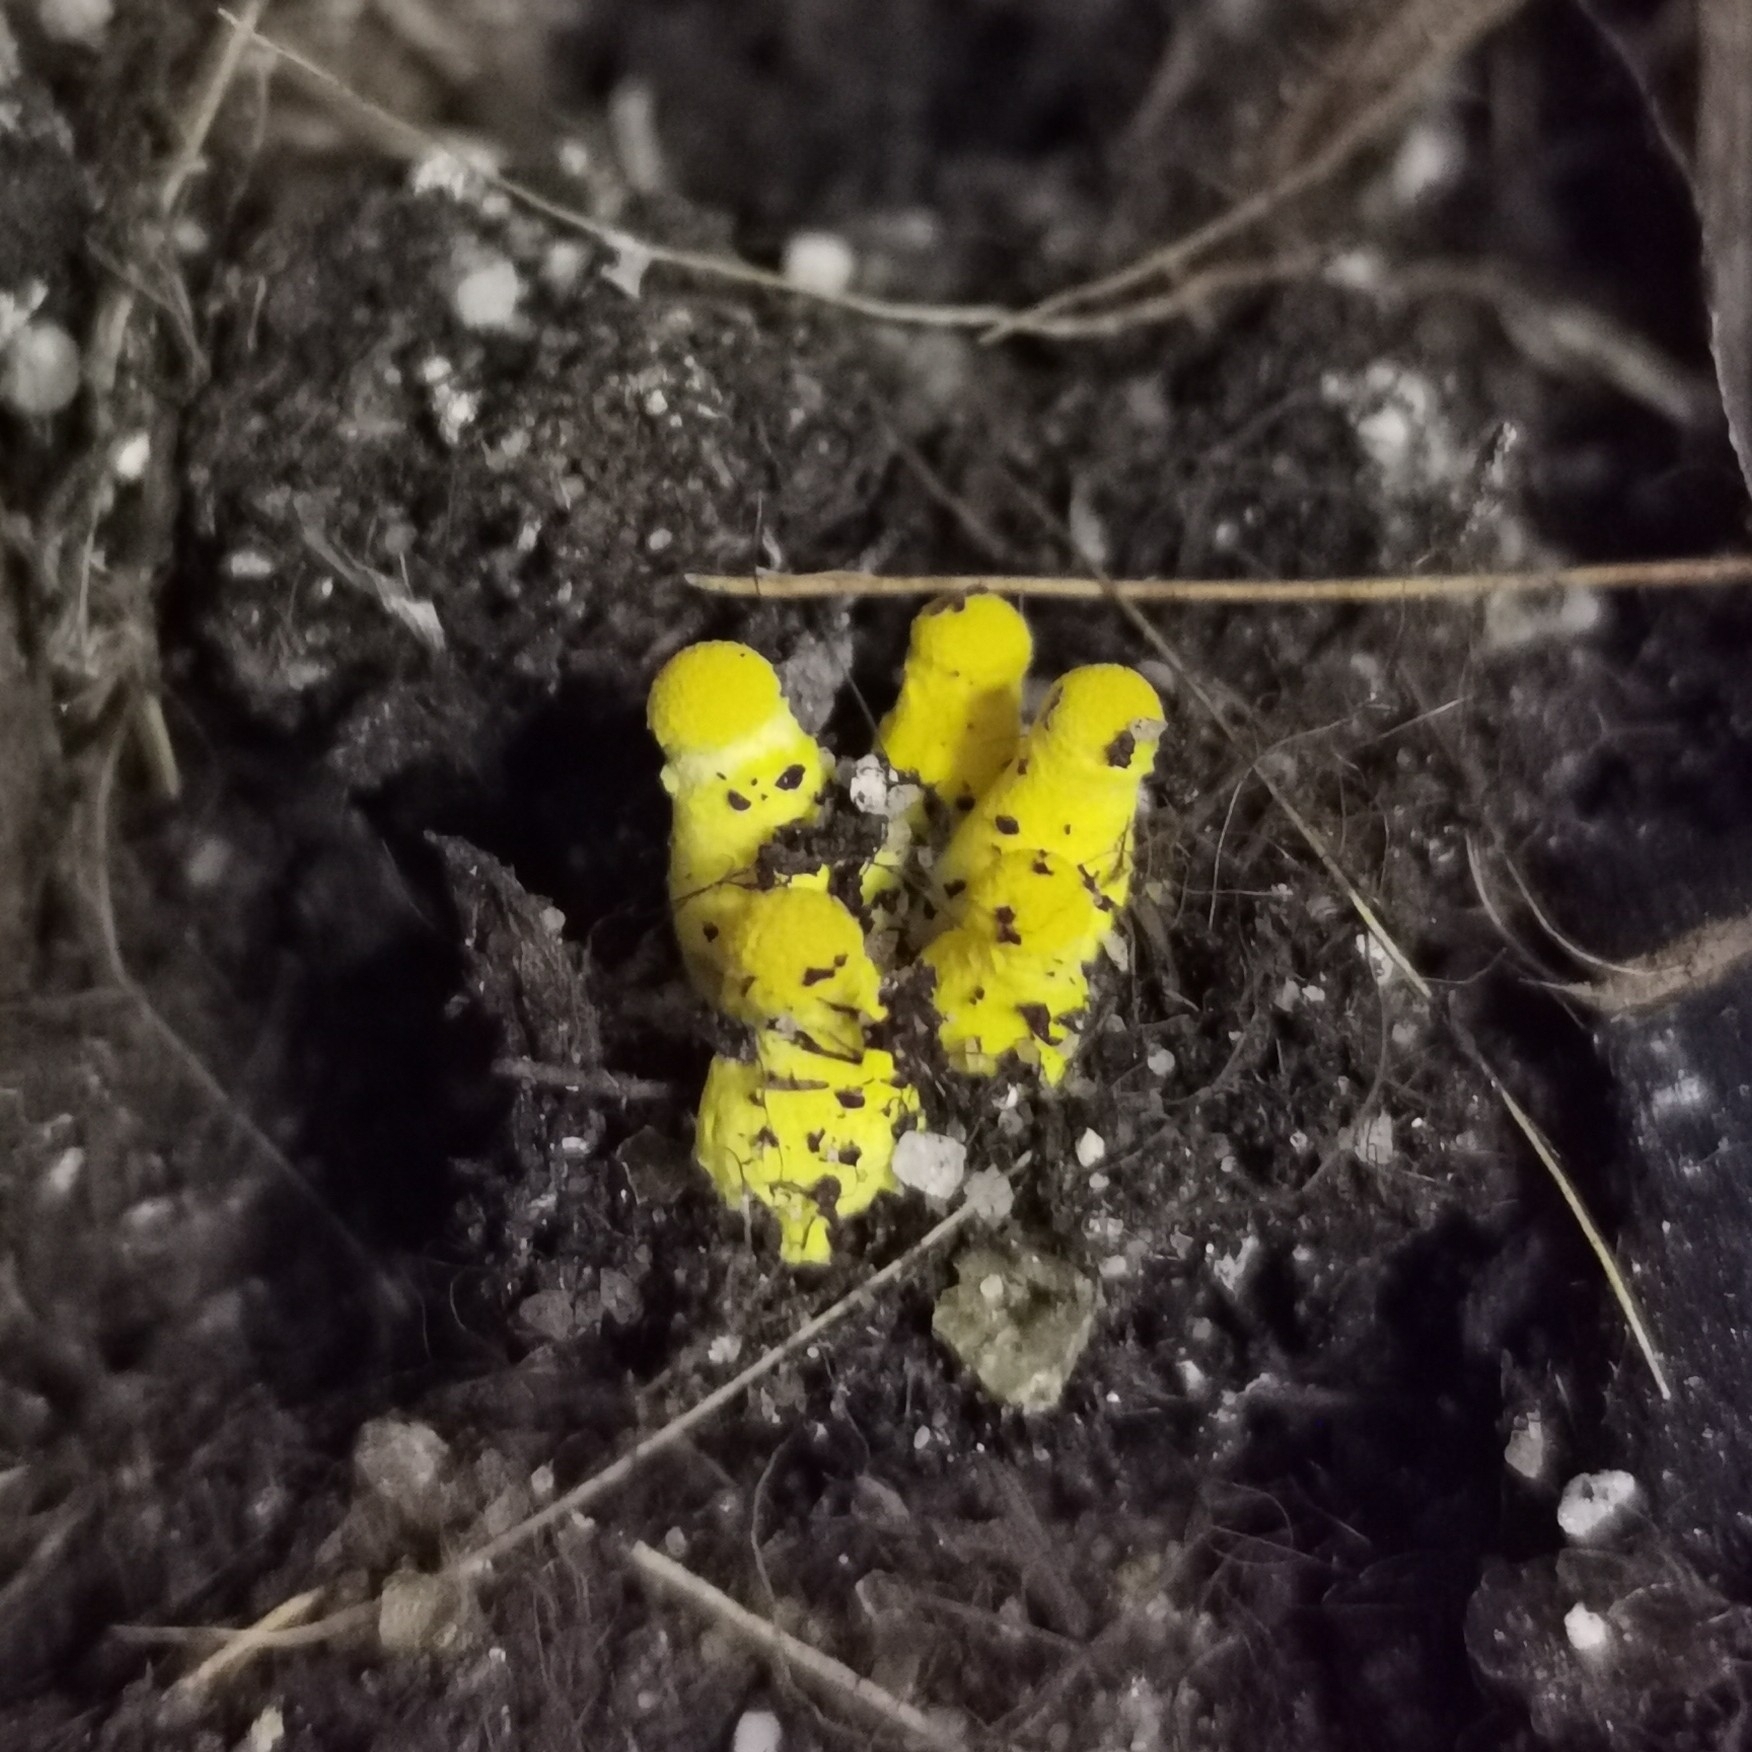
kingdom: Fungi
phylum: Basidiomycota
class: Agaricomycetes
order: Agaricales
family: Agaricaceae
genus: Leucocoprinus
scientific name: Leucocoprinus birnbaumii
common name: Plantpot dapperling
